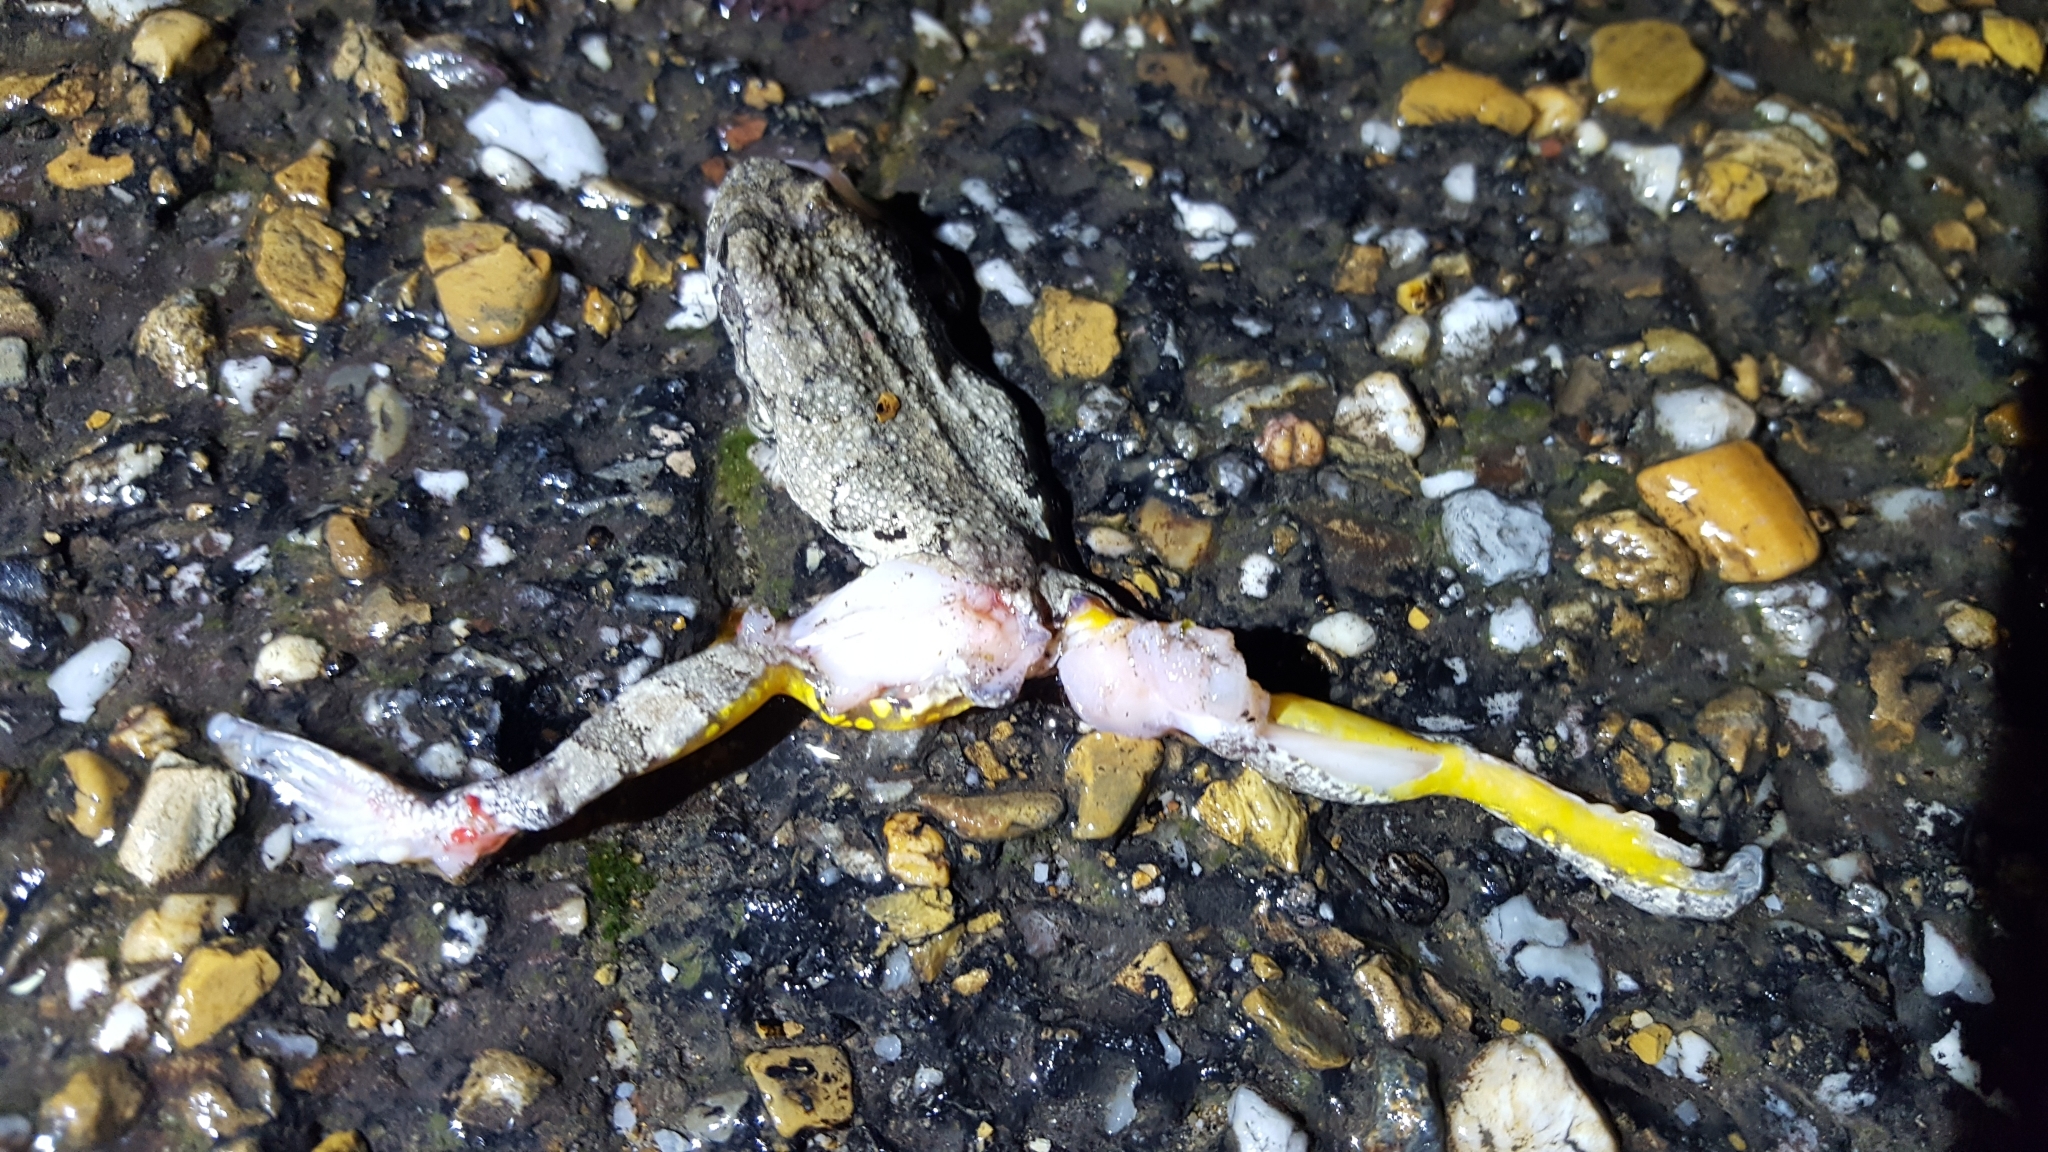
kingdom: Animalia
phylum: Chordata
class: Amphibia
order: Anura
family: Hylidae
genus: Hyla
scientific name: Hyla
